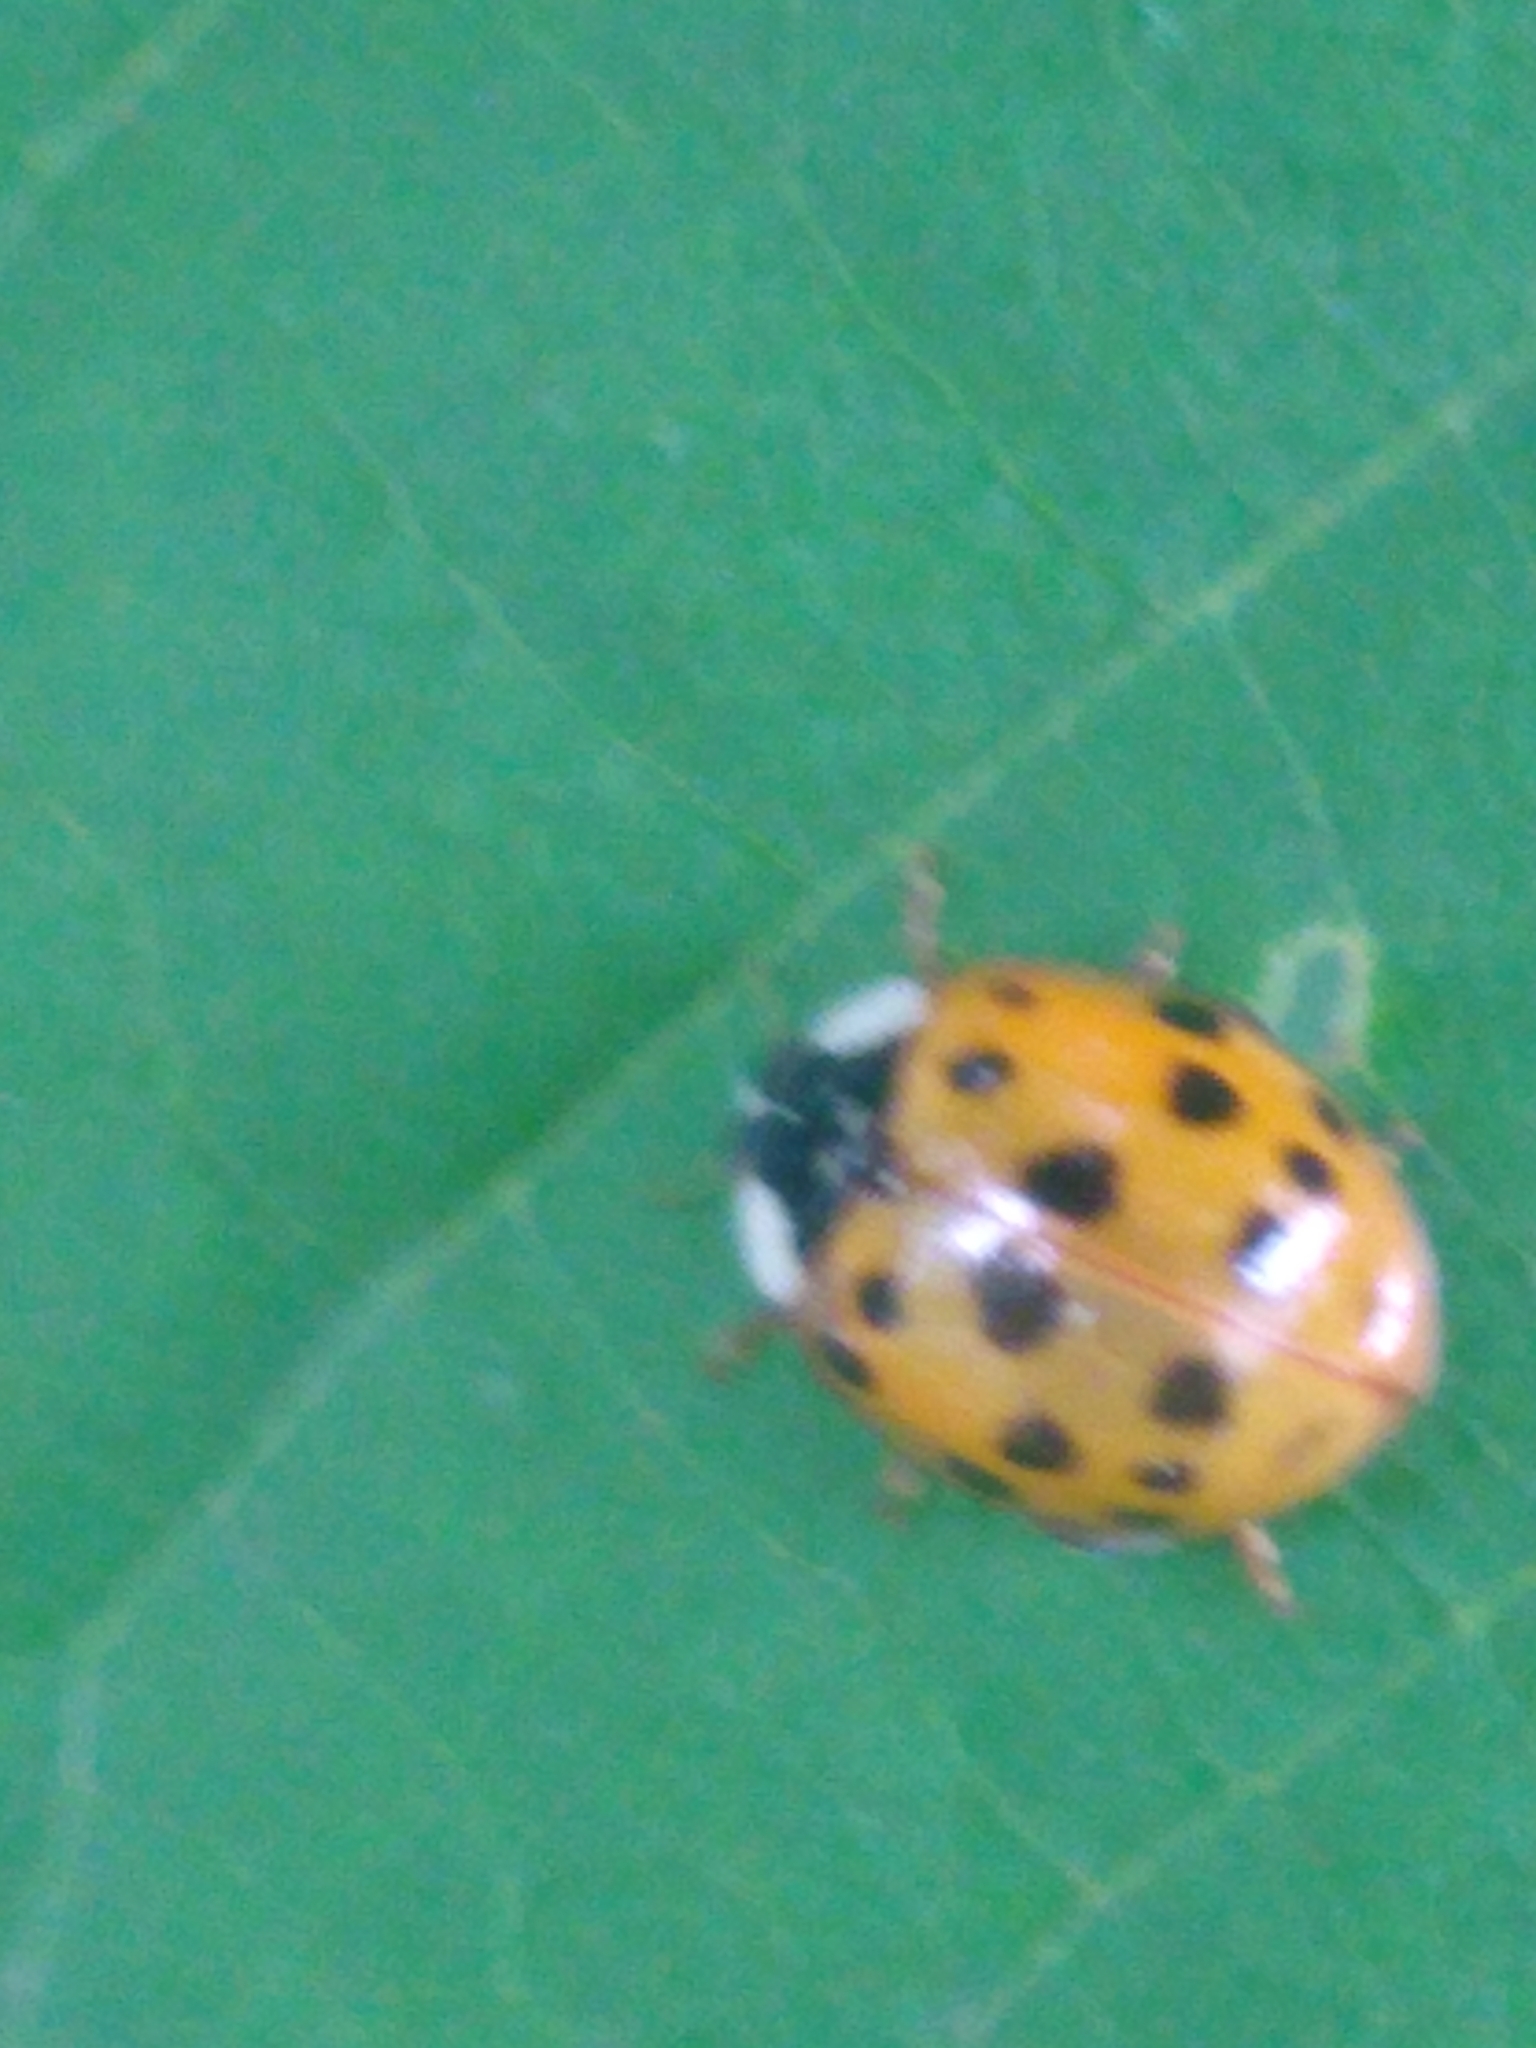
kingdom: Animalia
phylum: Arthropoda
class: Insecta
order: Coleoptera
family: Coccinellidae
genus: Harmonia
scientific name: Harmonia axyridis
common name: Harlequin ladybird
